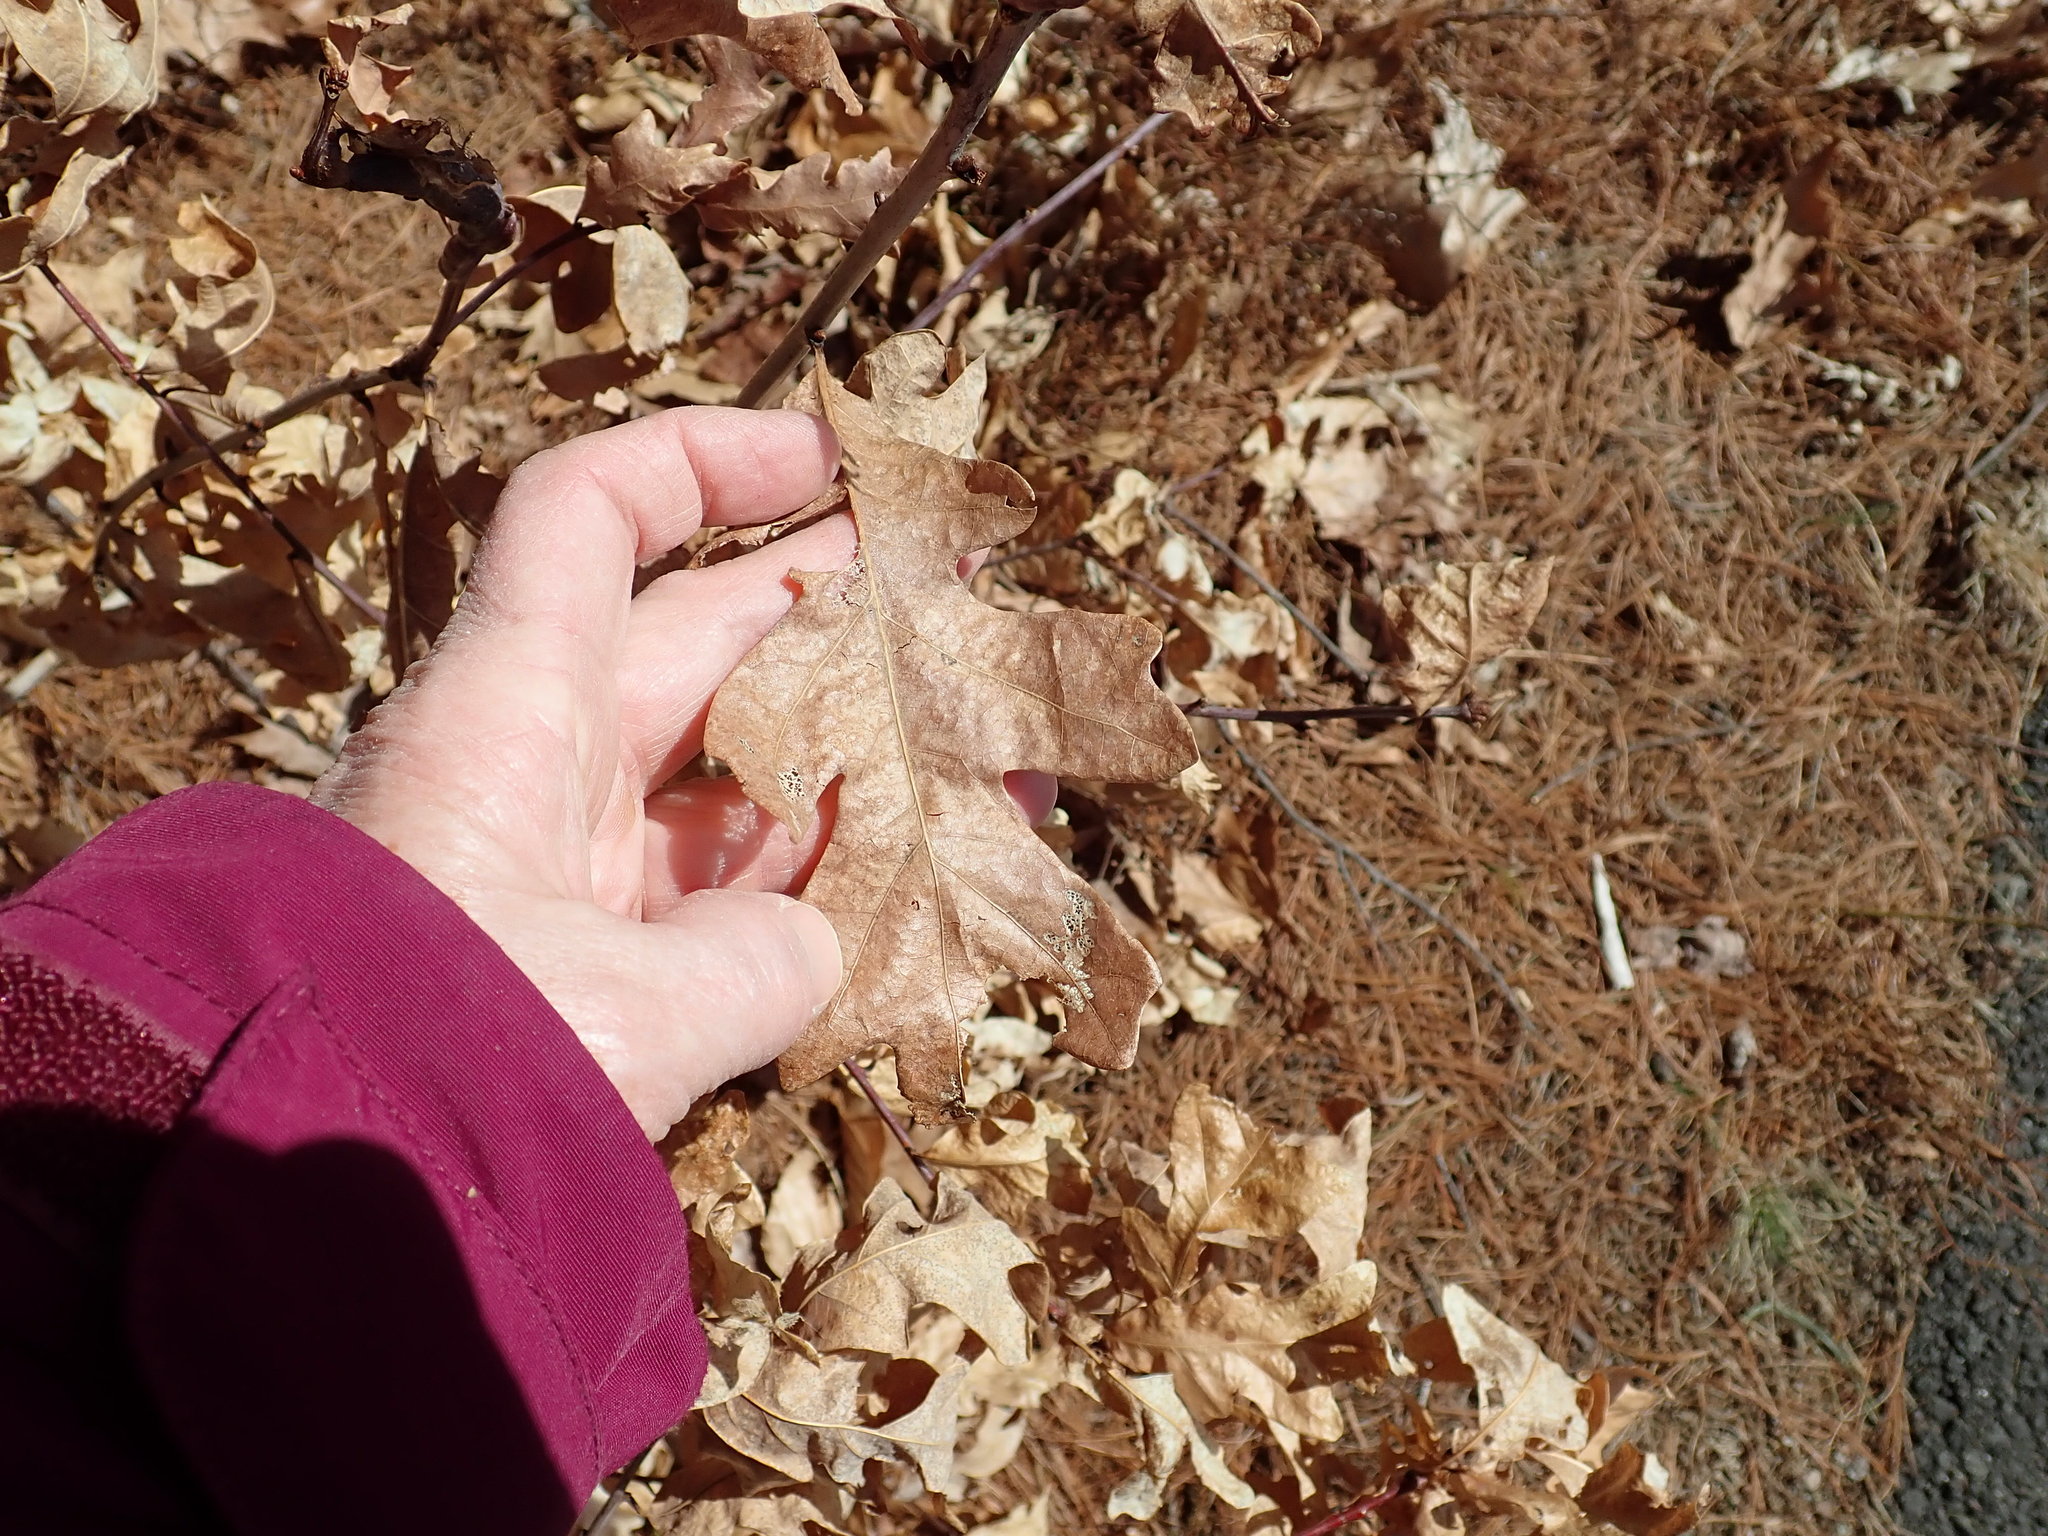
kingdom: Plantae
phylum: Tracheophyta
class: Magnoliopsida
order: Fagales
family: Fagaceae
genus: Quercus
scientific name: Quercus alba
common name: White oak
